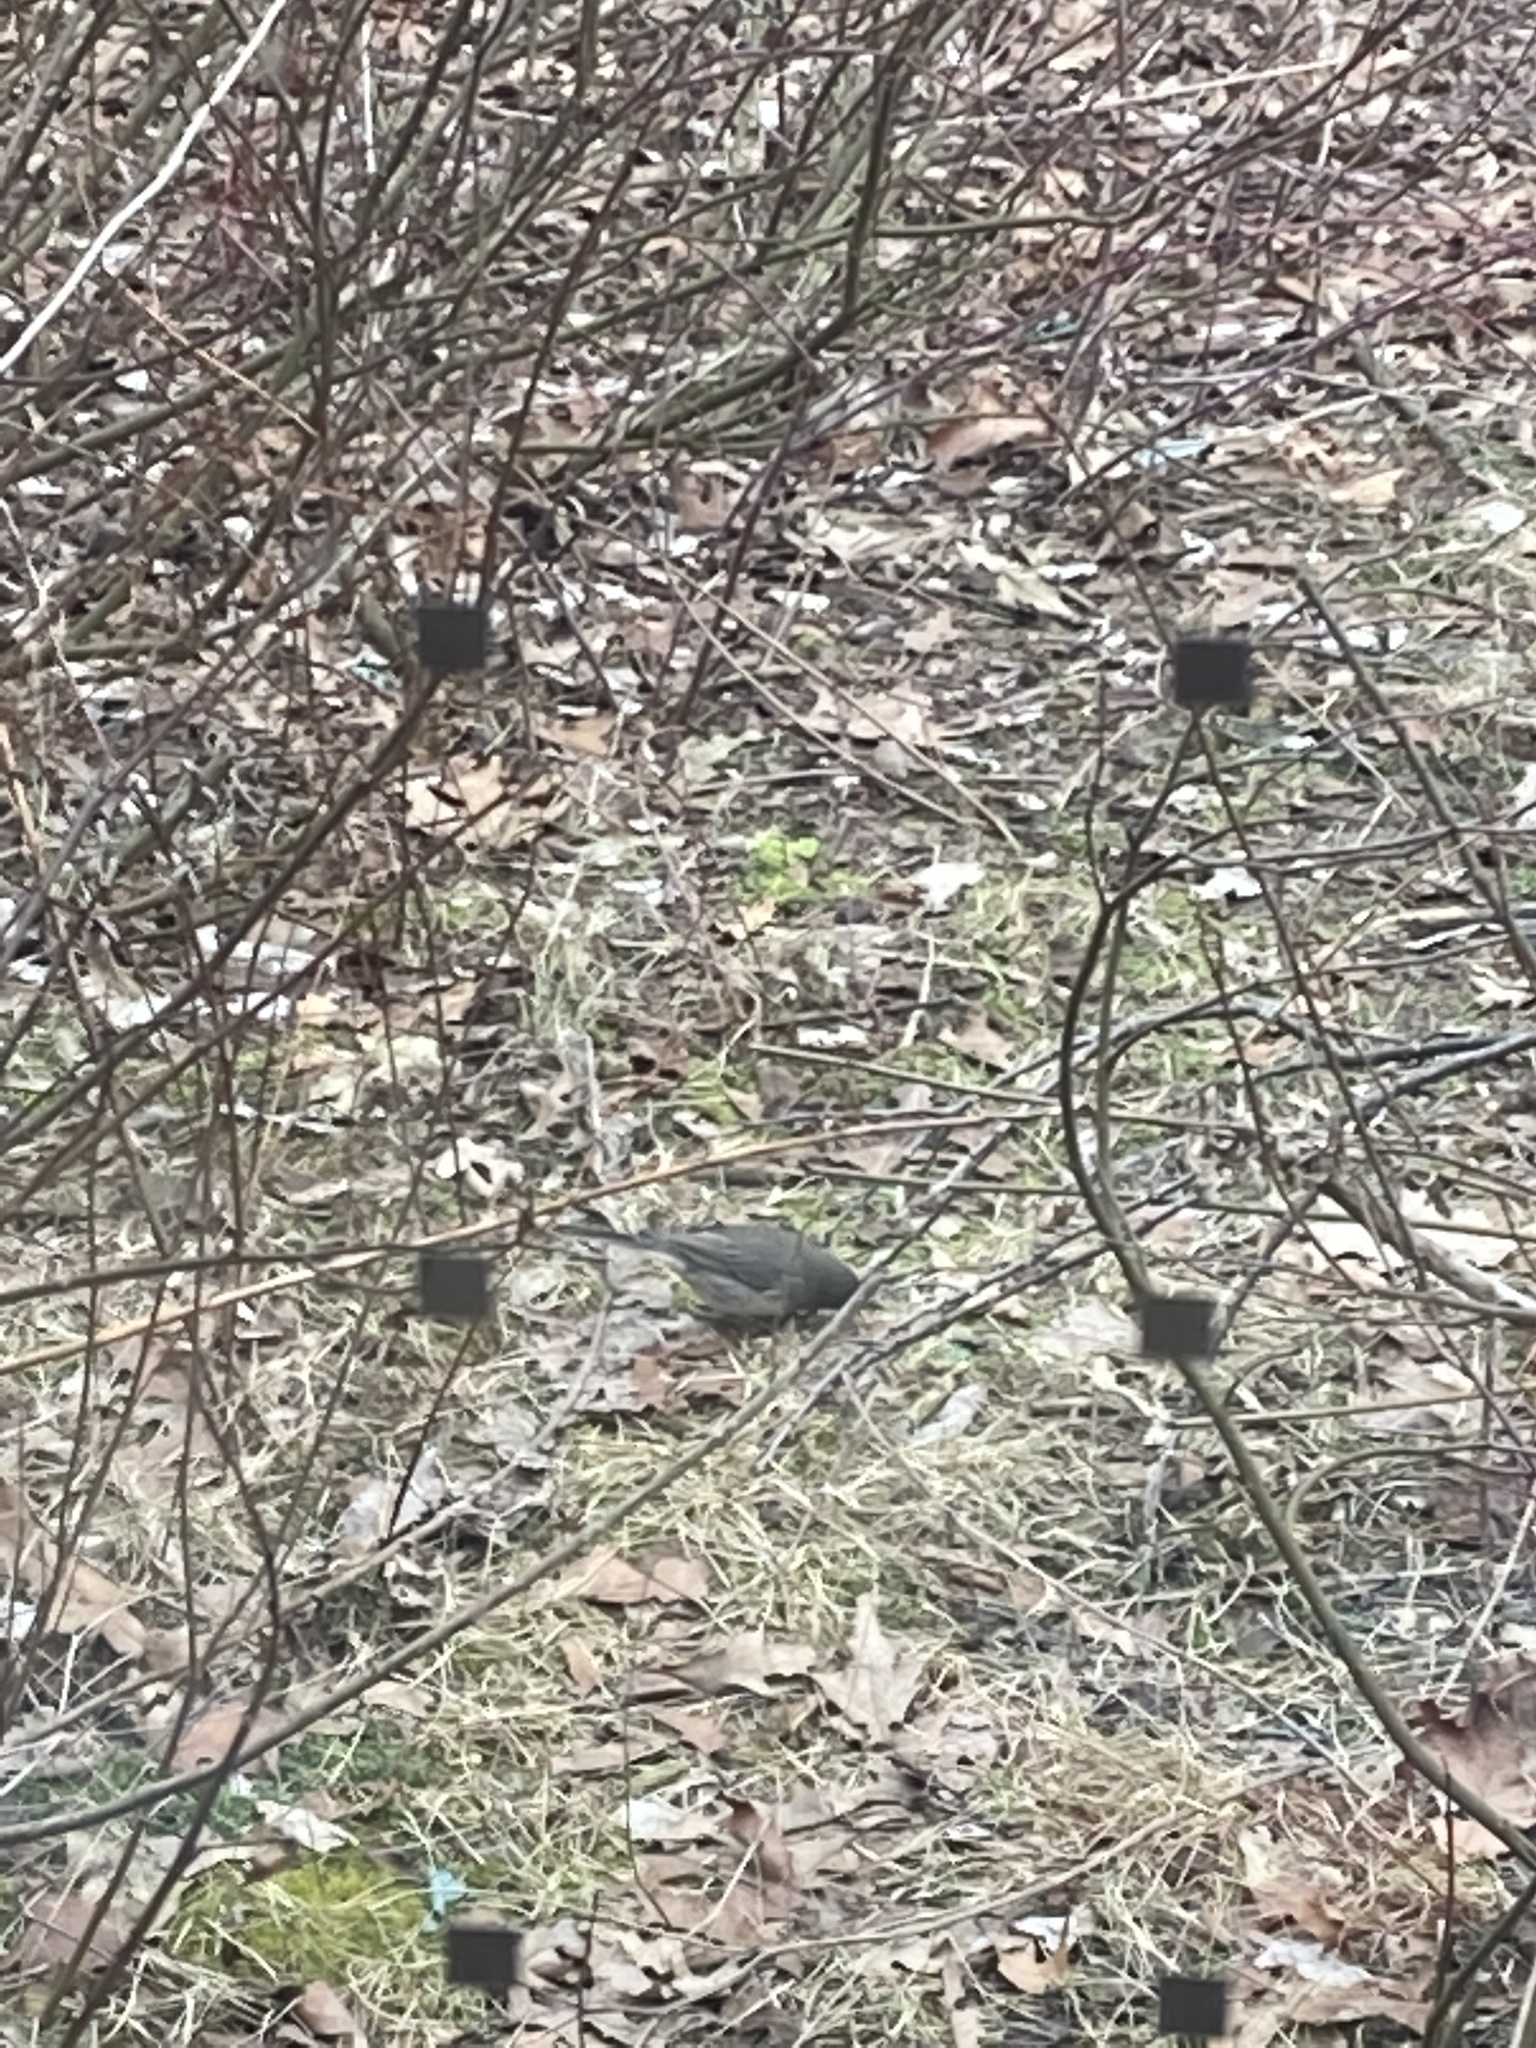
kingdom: Animalia
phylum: Chordata
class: Aves
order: Passeriformes
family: Passerellidae
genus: Junco
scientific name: Junco hyemalis
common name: Dark-eyed junco
